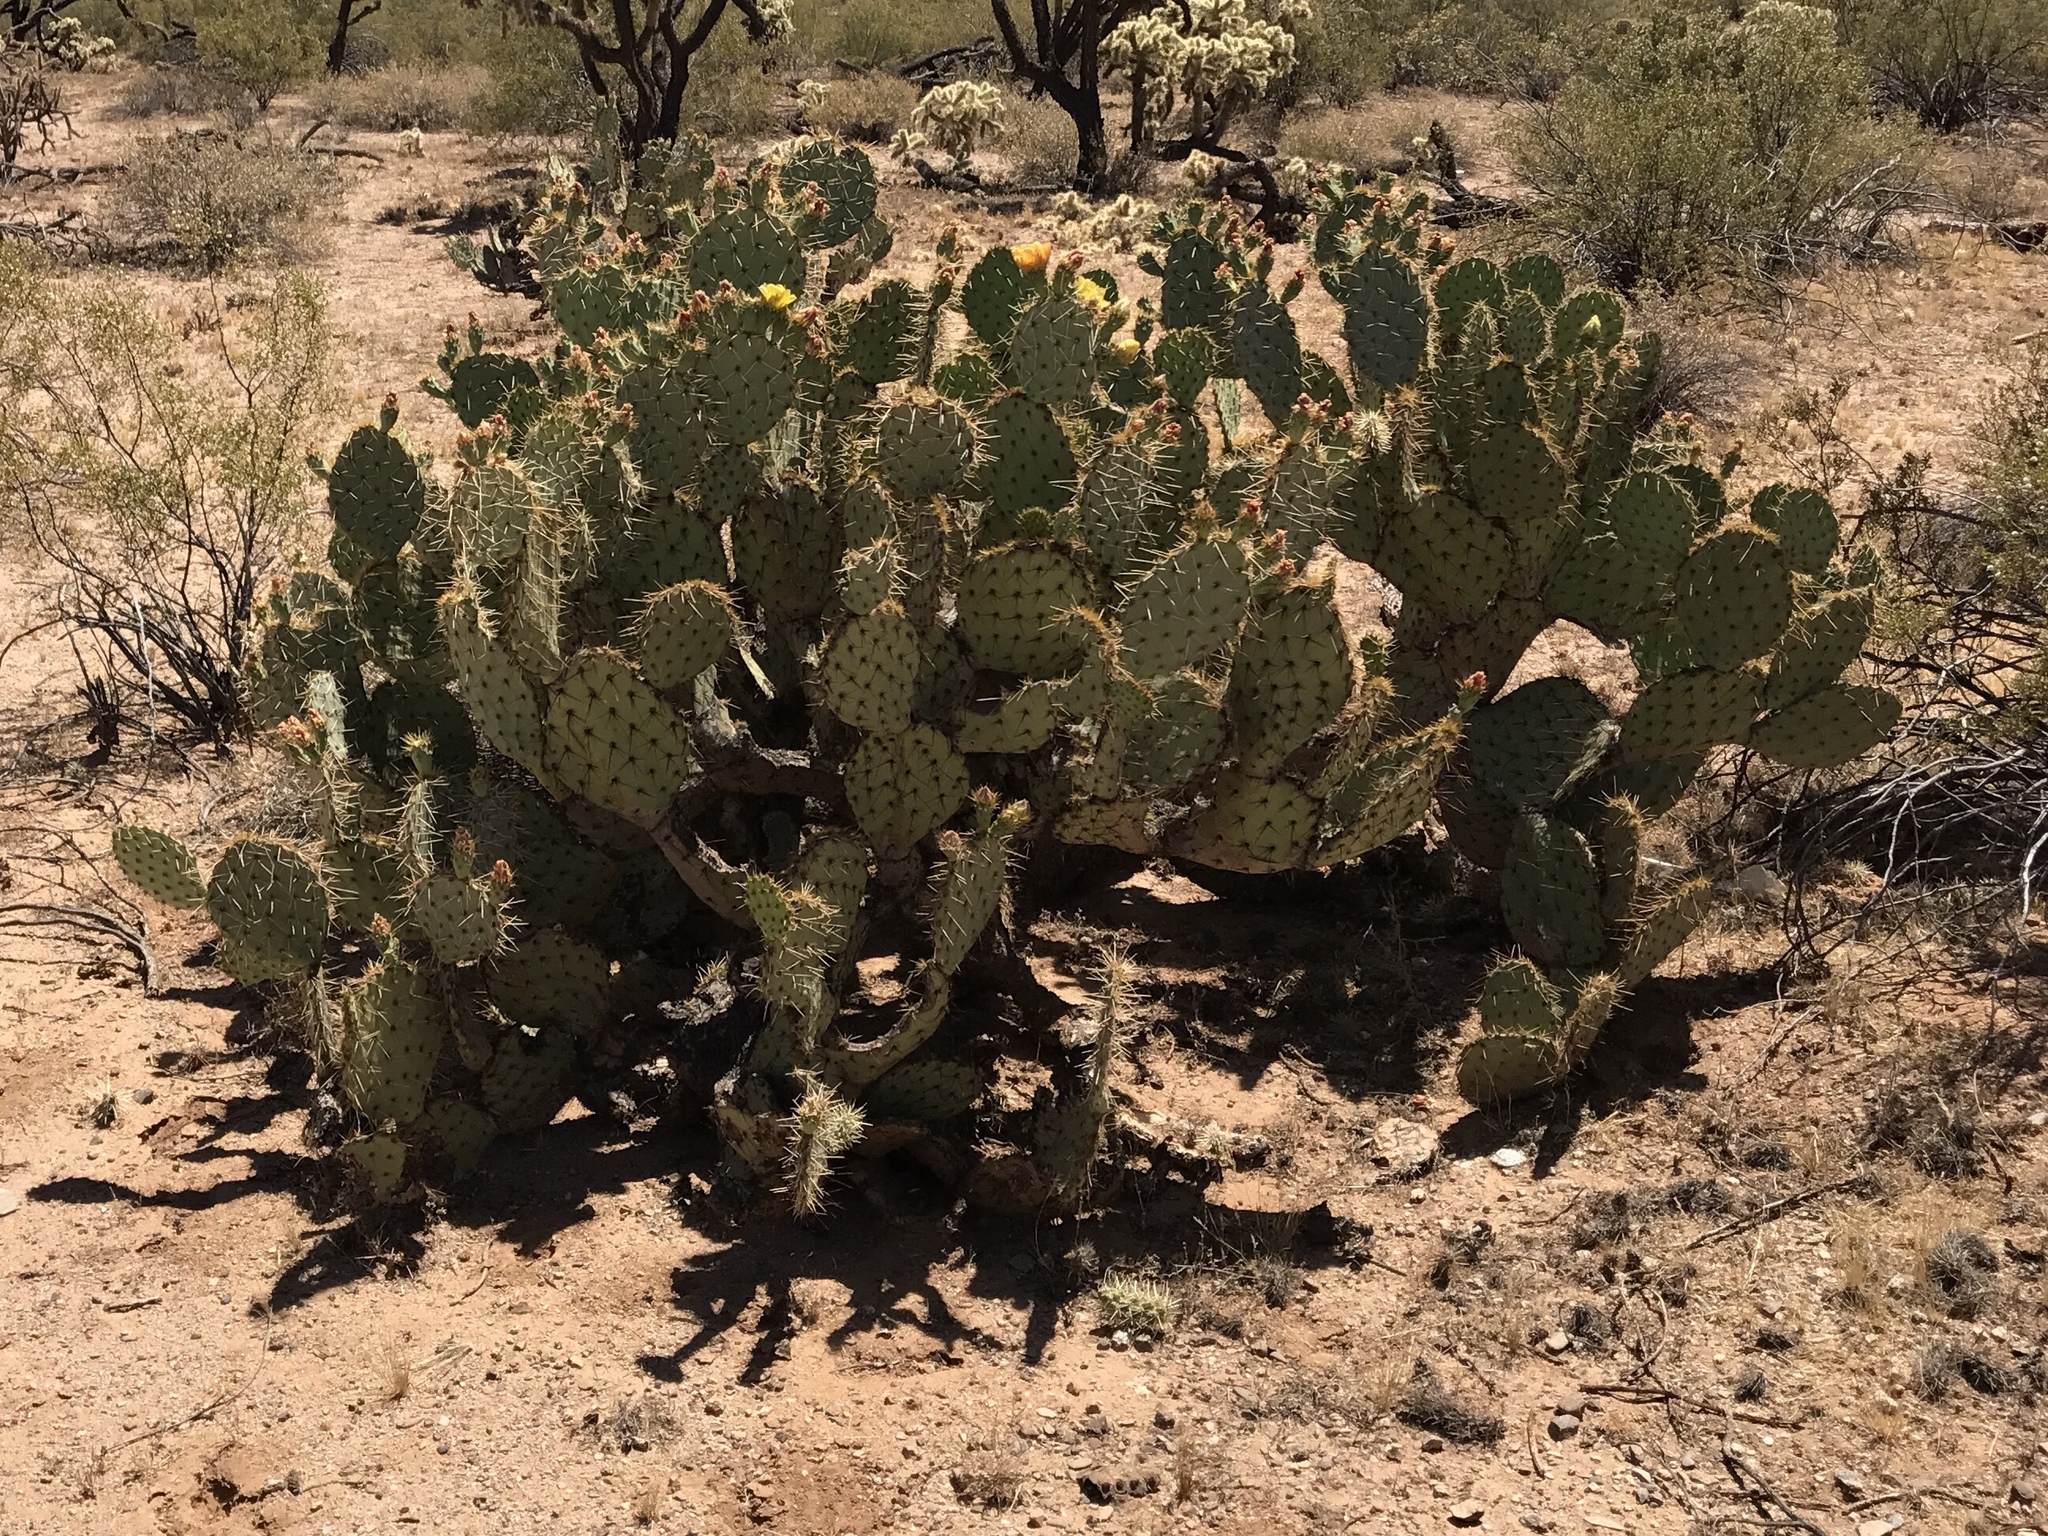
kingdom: Plantae
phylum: Tracheophyta
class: Magnoliopsida
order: Caryophyllales
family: Cactaceae
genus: Opuntia
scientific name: Opuntia engelmannii
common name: Cactus-apple
